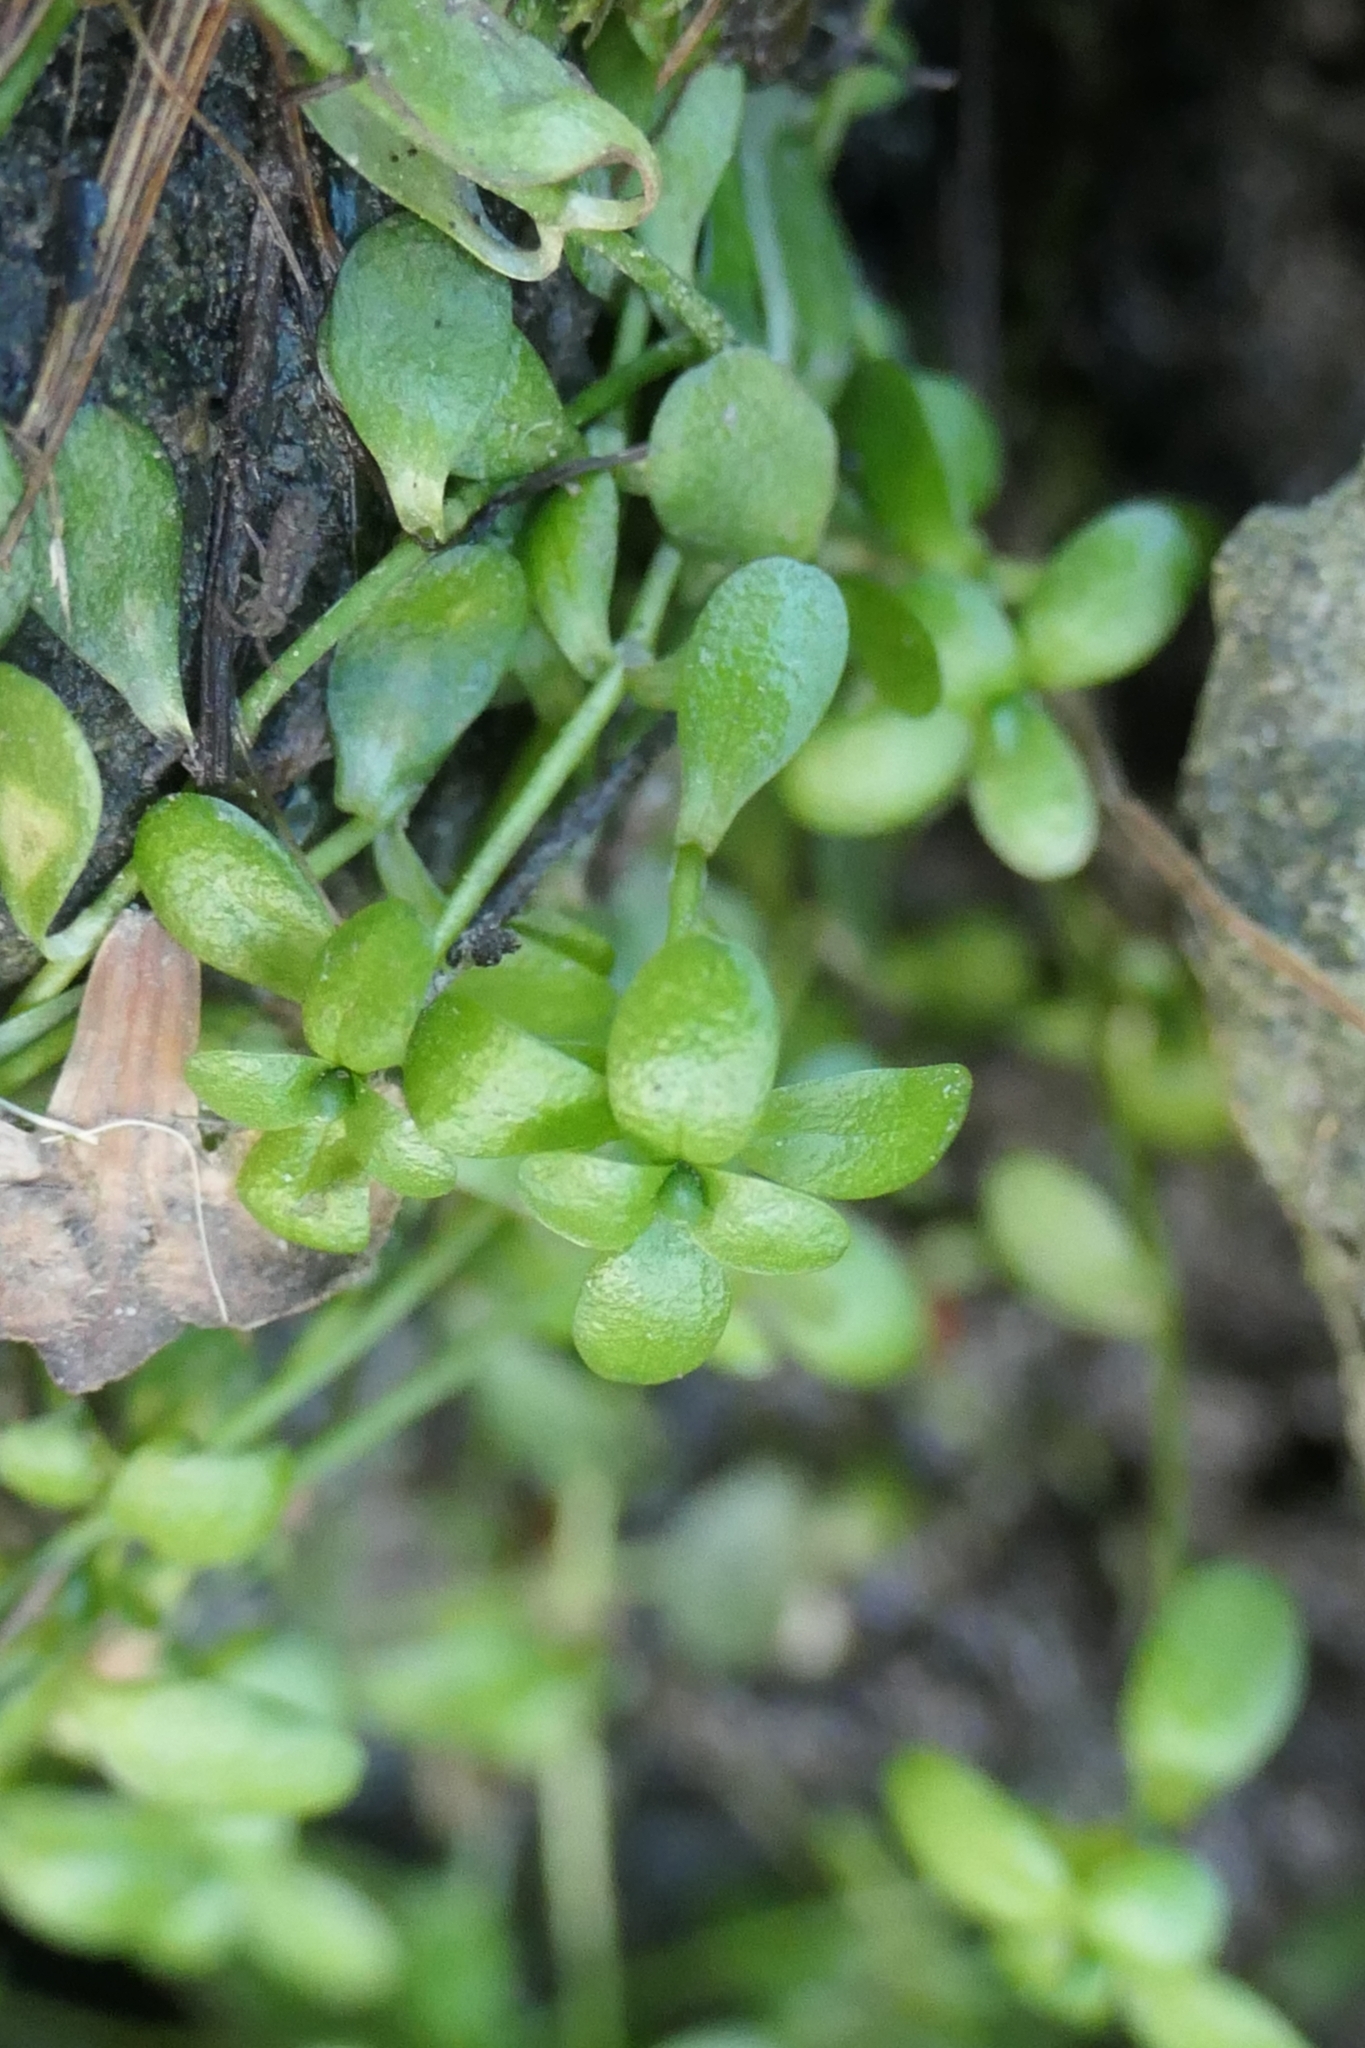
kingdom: Plantae
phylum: Tracheophyta
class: Magnoliopsida
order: Lamiales
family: Plantaginaceae
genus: Callitriche
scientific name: Callitriche stagnalis
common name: Common water-starwort
